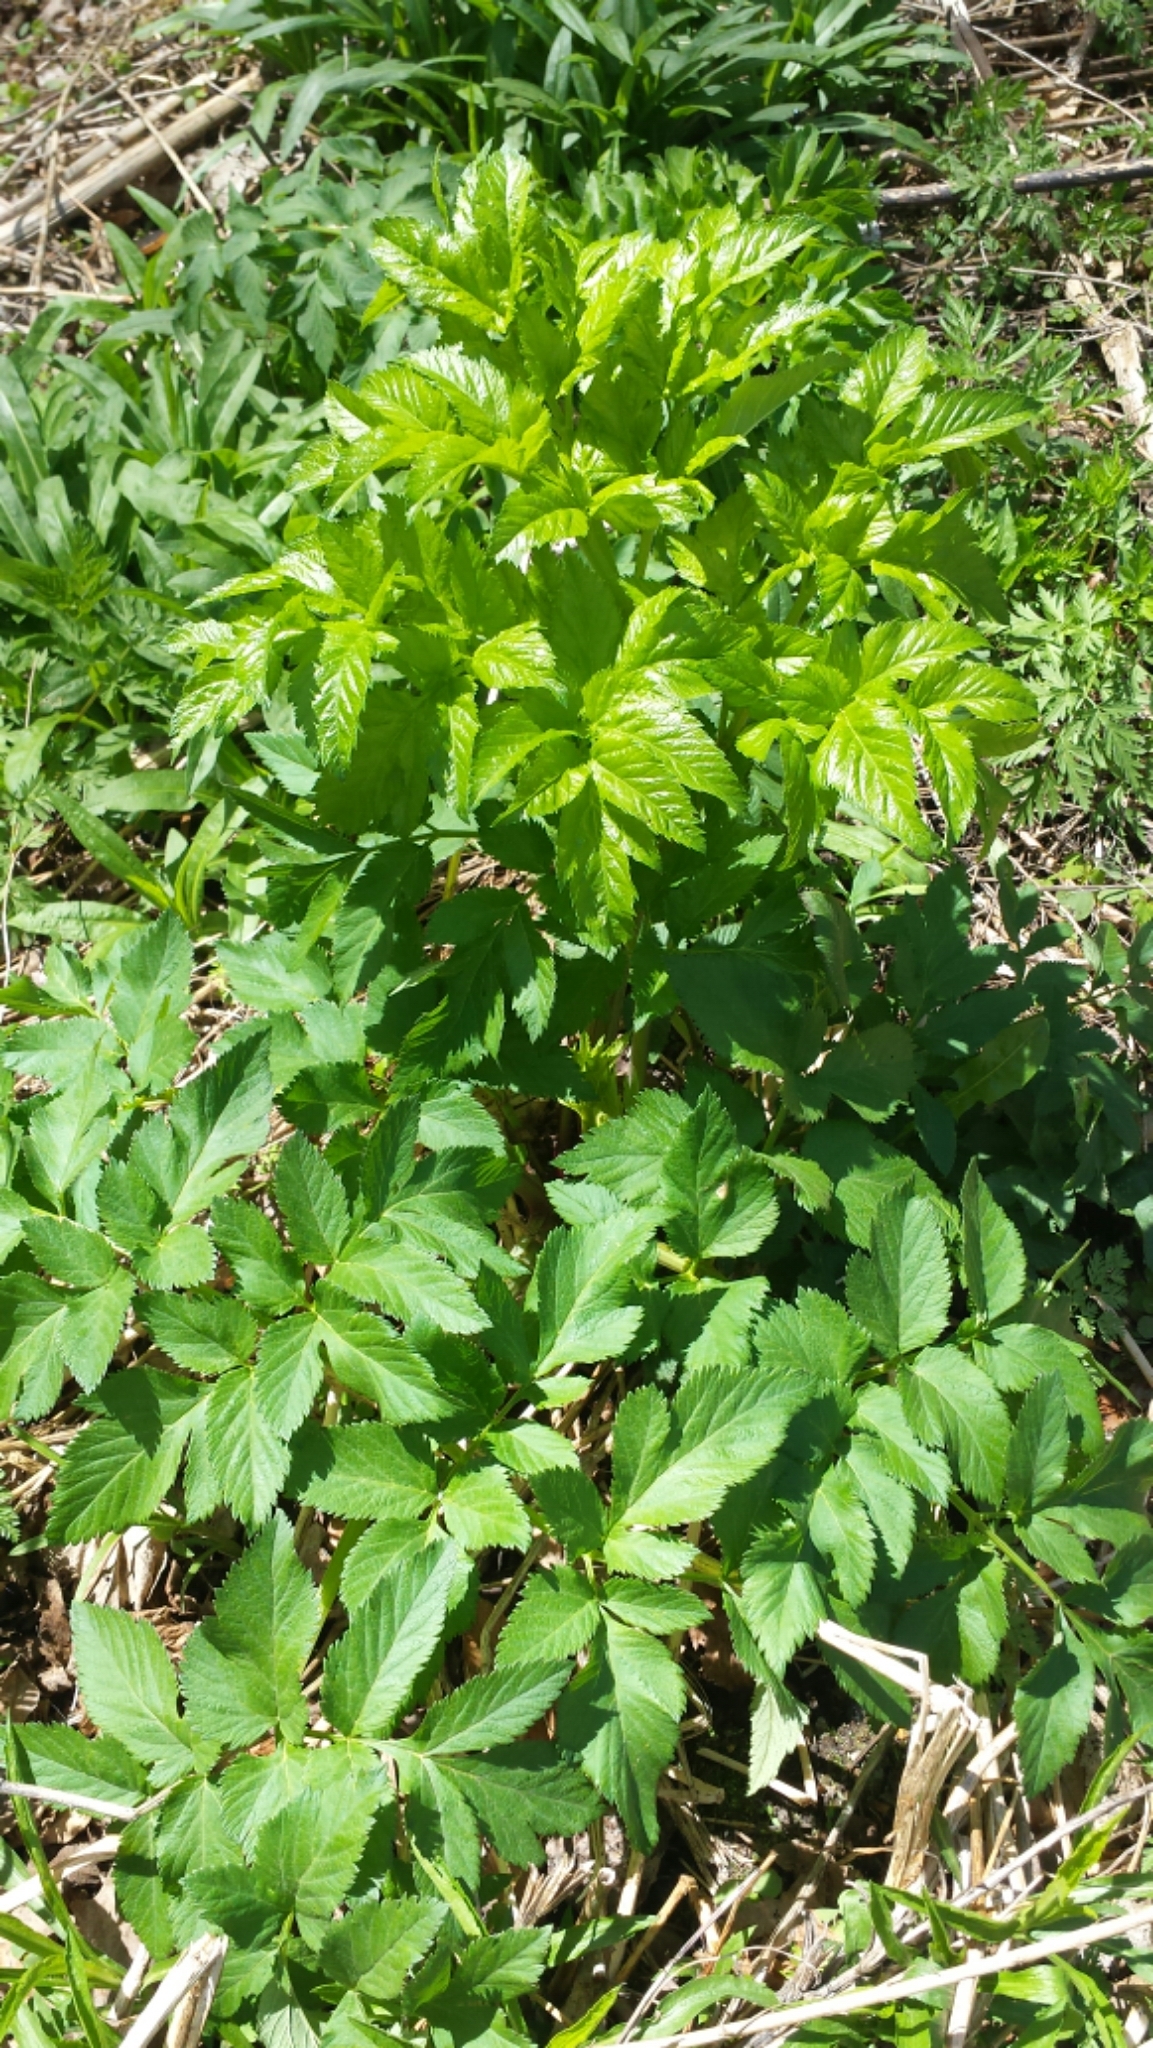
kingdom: Plantae
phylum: Tracheophyta
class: Magnoliopsida
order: Apiales
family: Apiaceae
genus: Heracleum
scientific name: Heracleum maximum
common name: American cow parsnip
